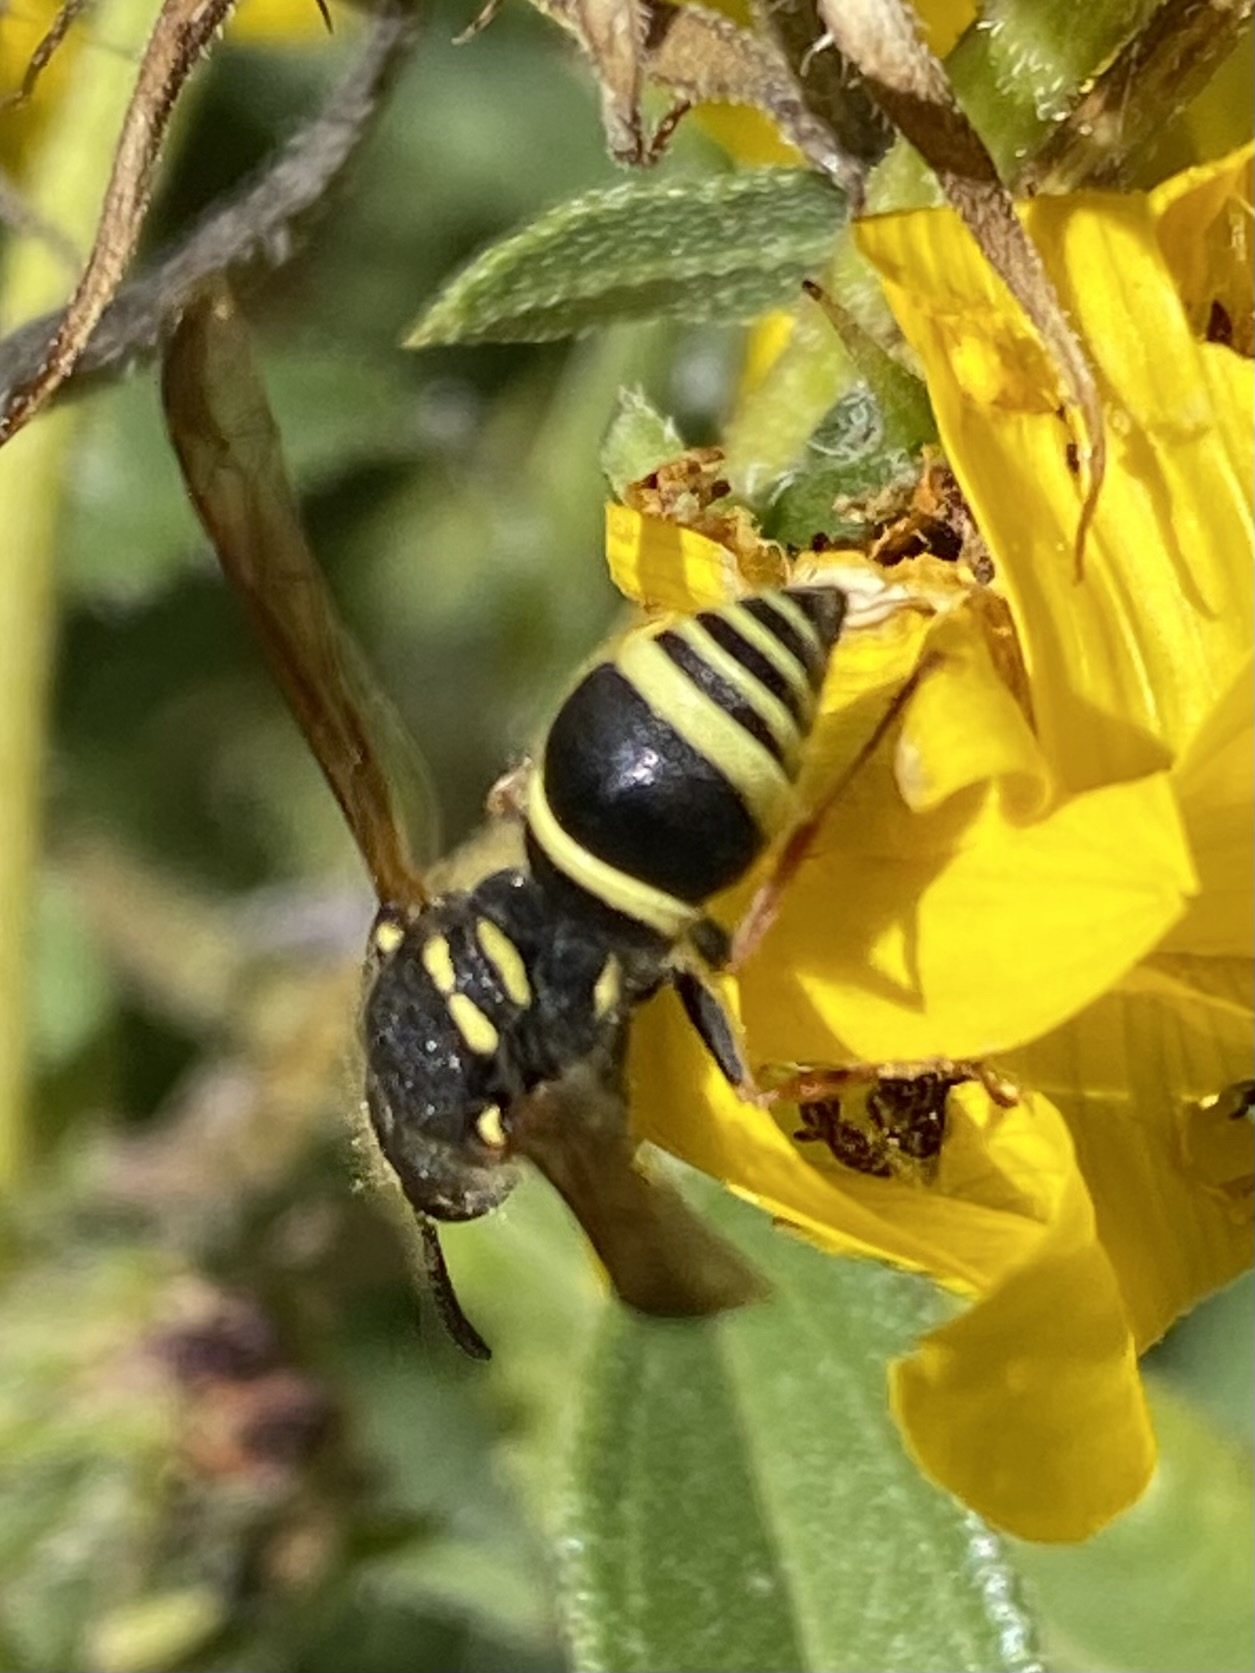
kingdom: Animalia
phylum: Arthropoda
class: Insecta
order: Hymenoptera
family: Vespidae
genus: Ancistrocerus
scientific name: Ancistrocerus bustamente
